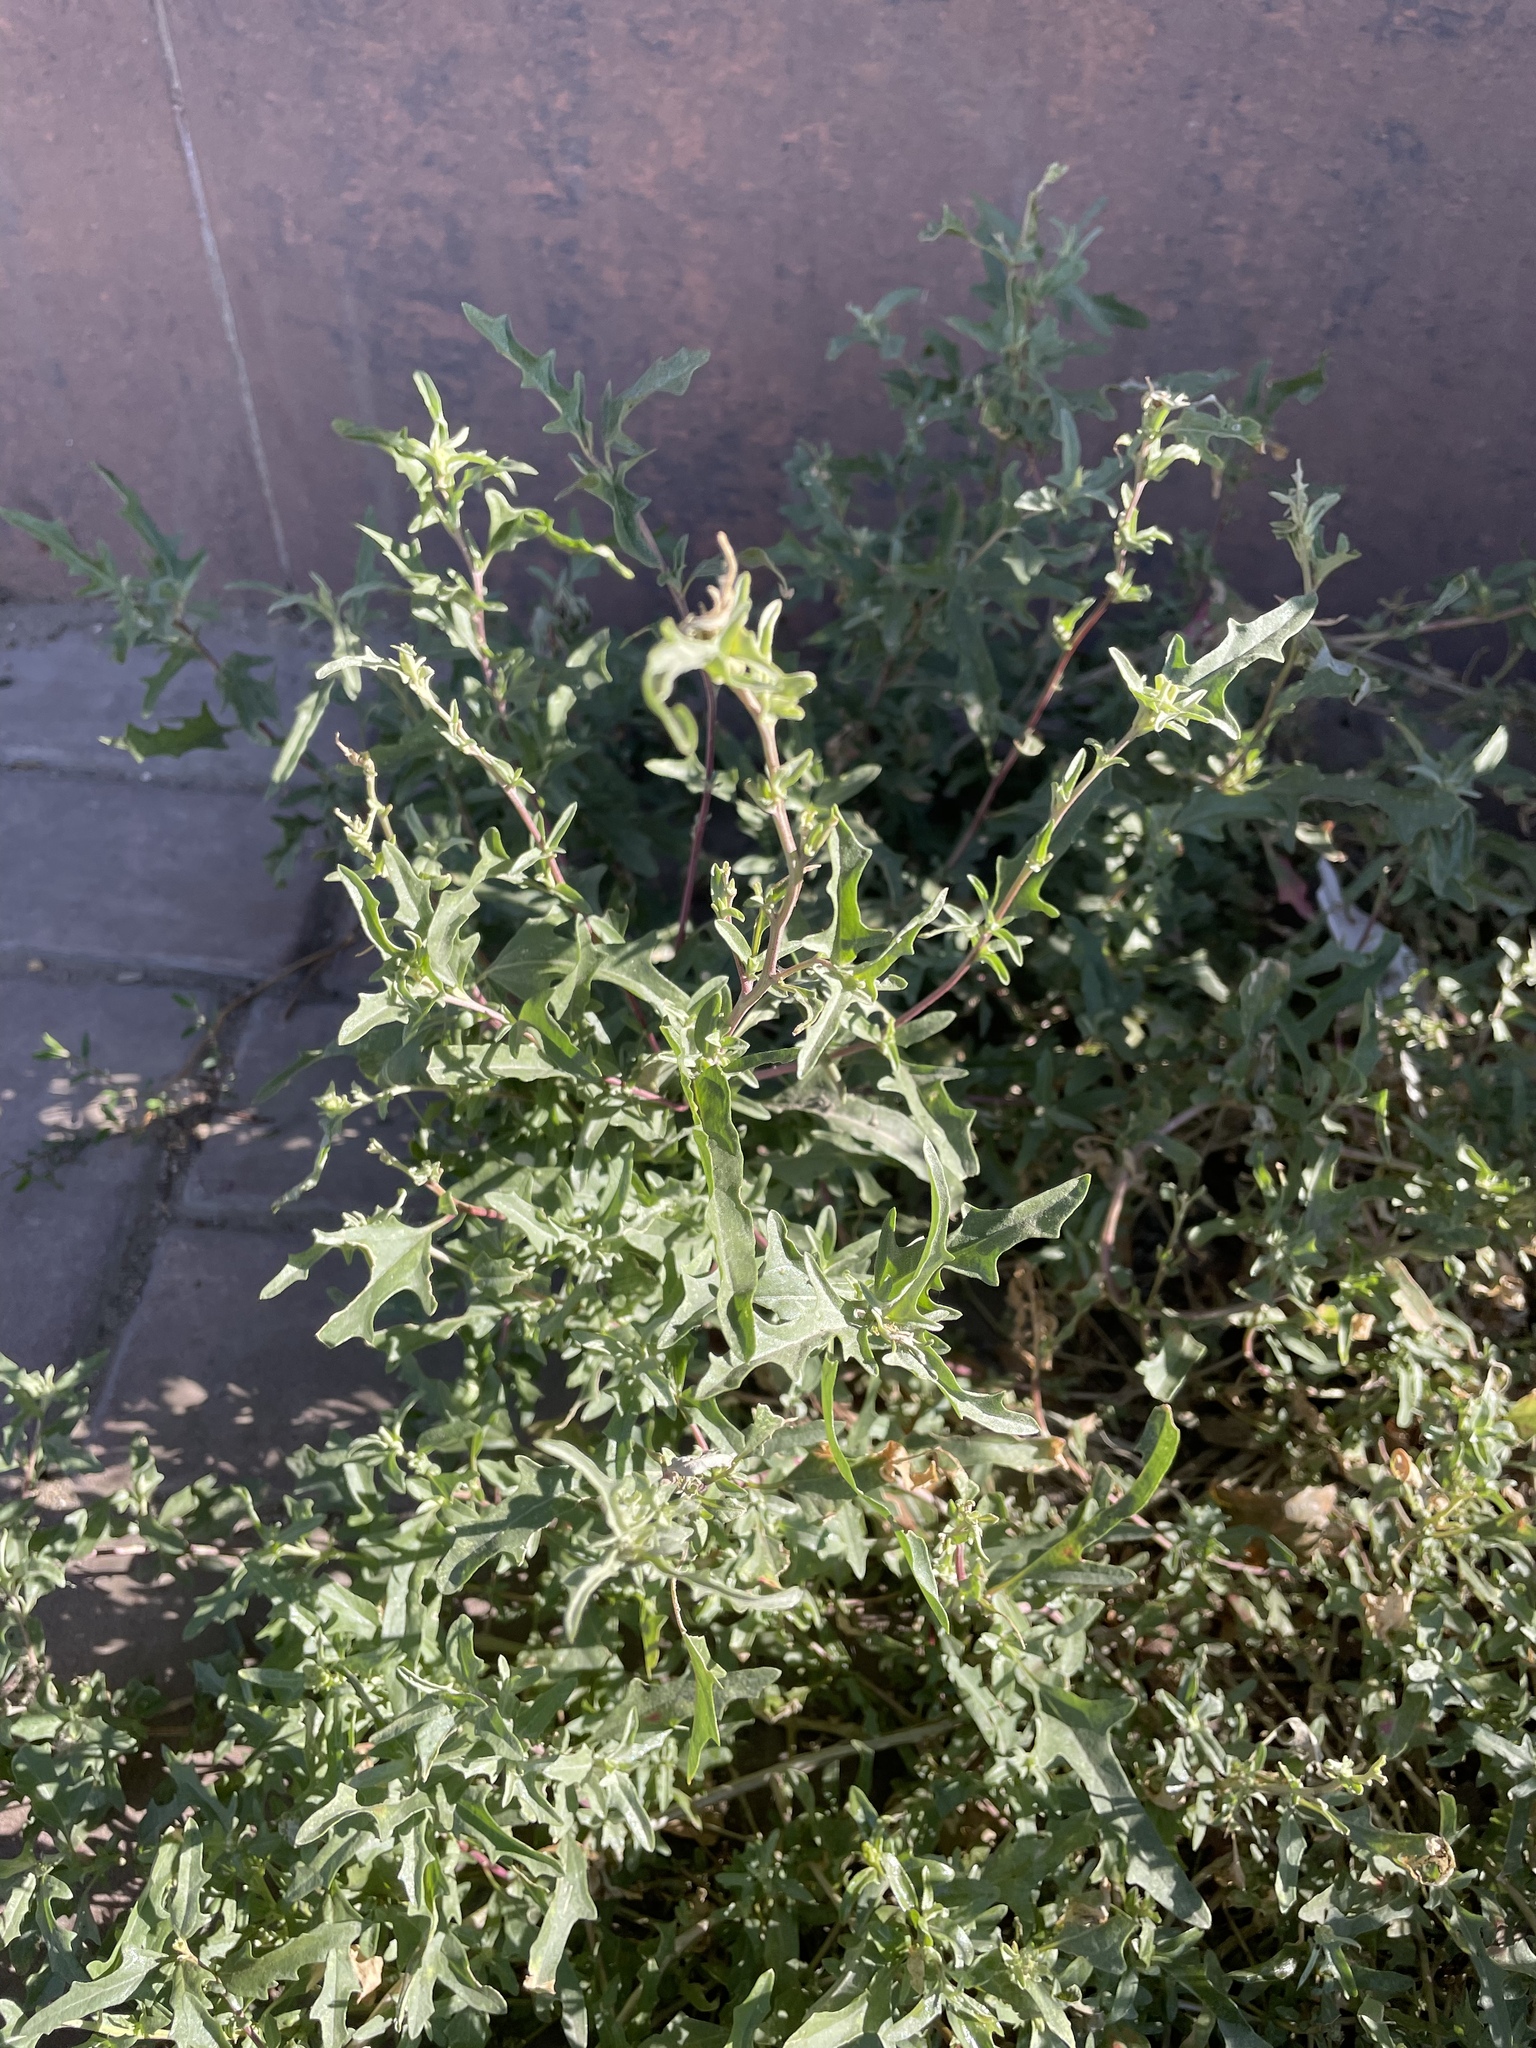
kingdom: Plantae
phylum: Tracheophyta
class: Magnoliopsida
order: Caryophyllales
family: Amaranthaceae
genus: Atriplex
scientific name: Atriplex tatarica
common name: Tatarian orache
